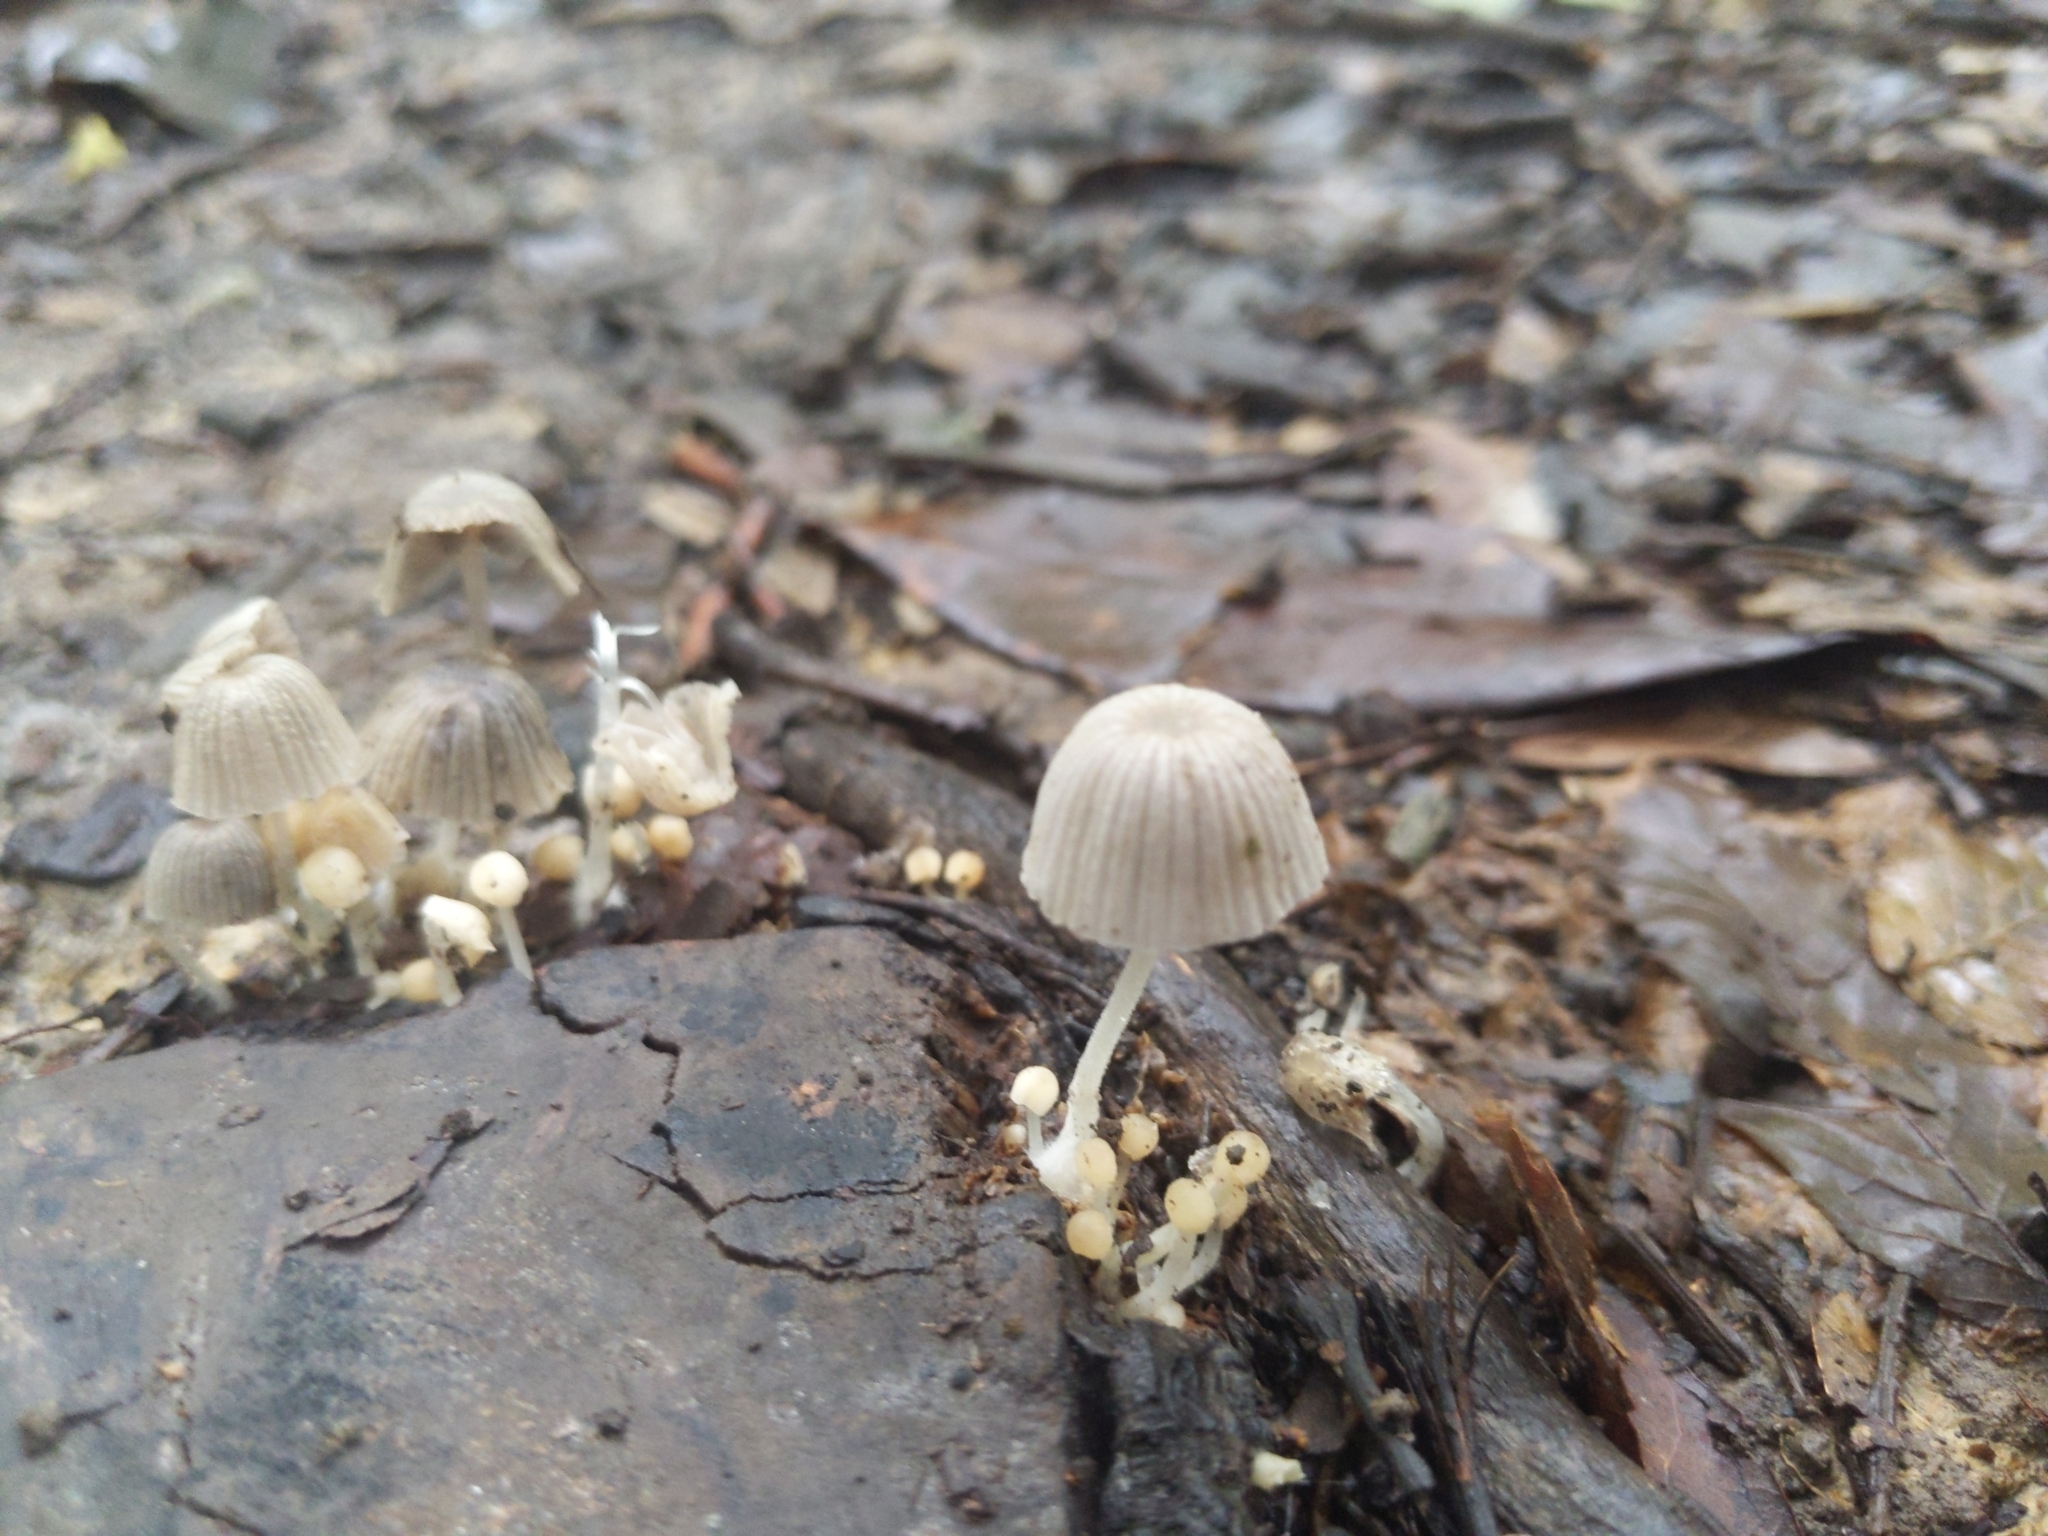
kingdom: Fungi
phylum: Basidiomycota
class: Agaricomycetes
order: Agaricales
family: Psathyrellaceae
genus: Coprinellus
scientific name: Coprinellus disseminatus
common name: Fairies' bonnets
